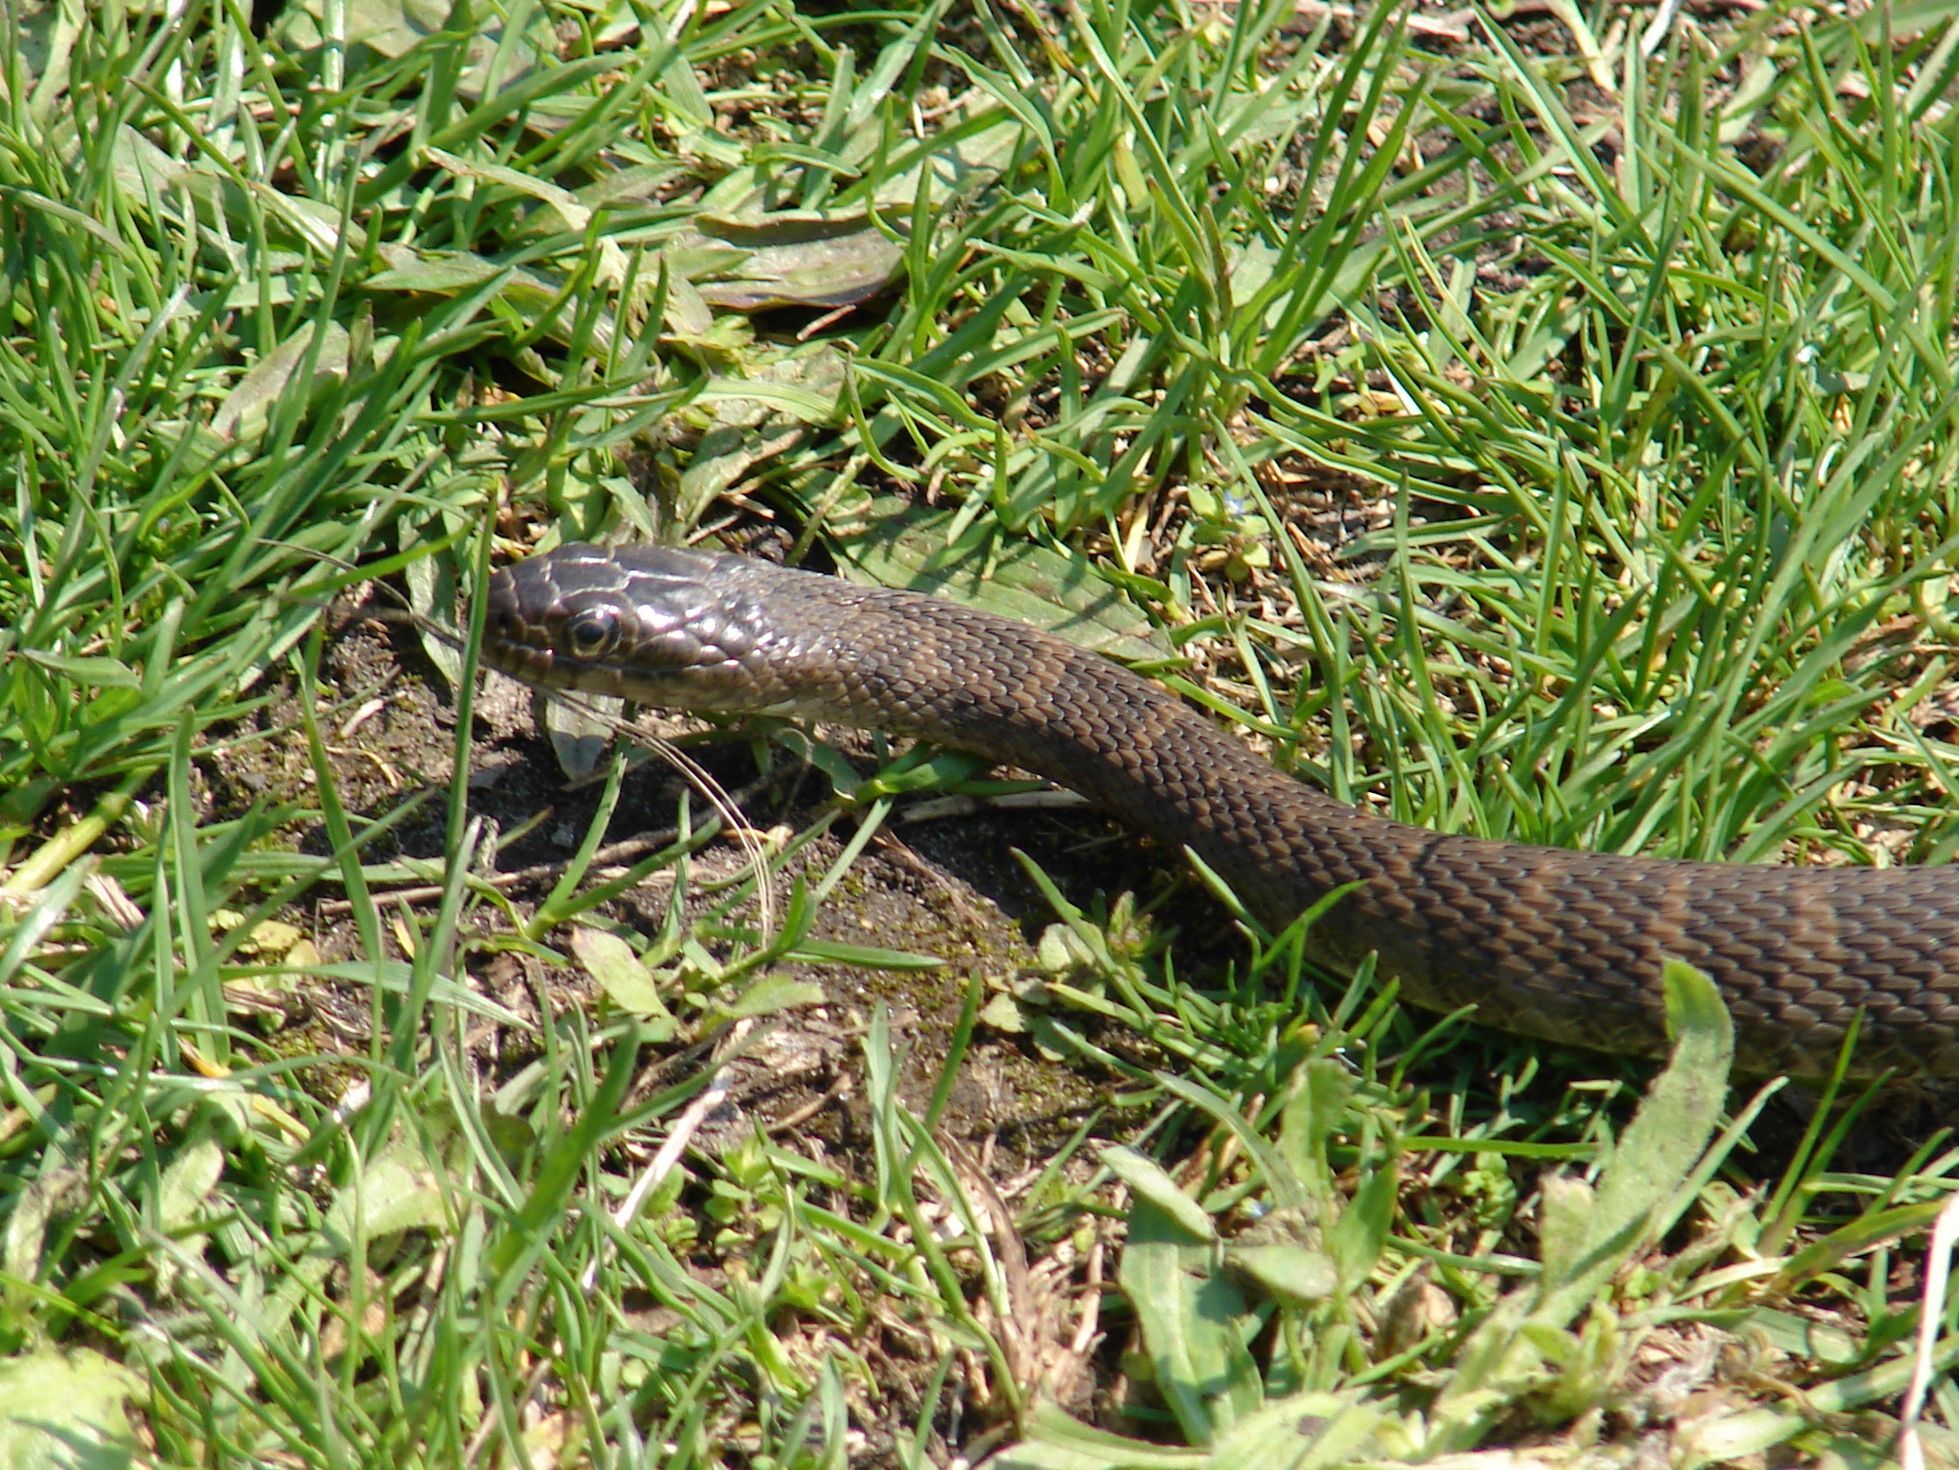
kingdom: Animalia
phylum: Chordata
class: Squamata
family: Colubridae
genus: Nerodia
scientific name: Nerodia sipedon
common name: Northern water snake
